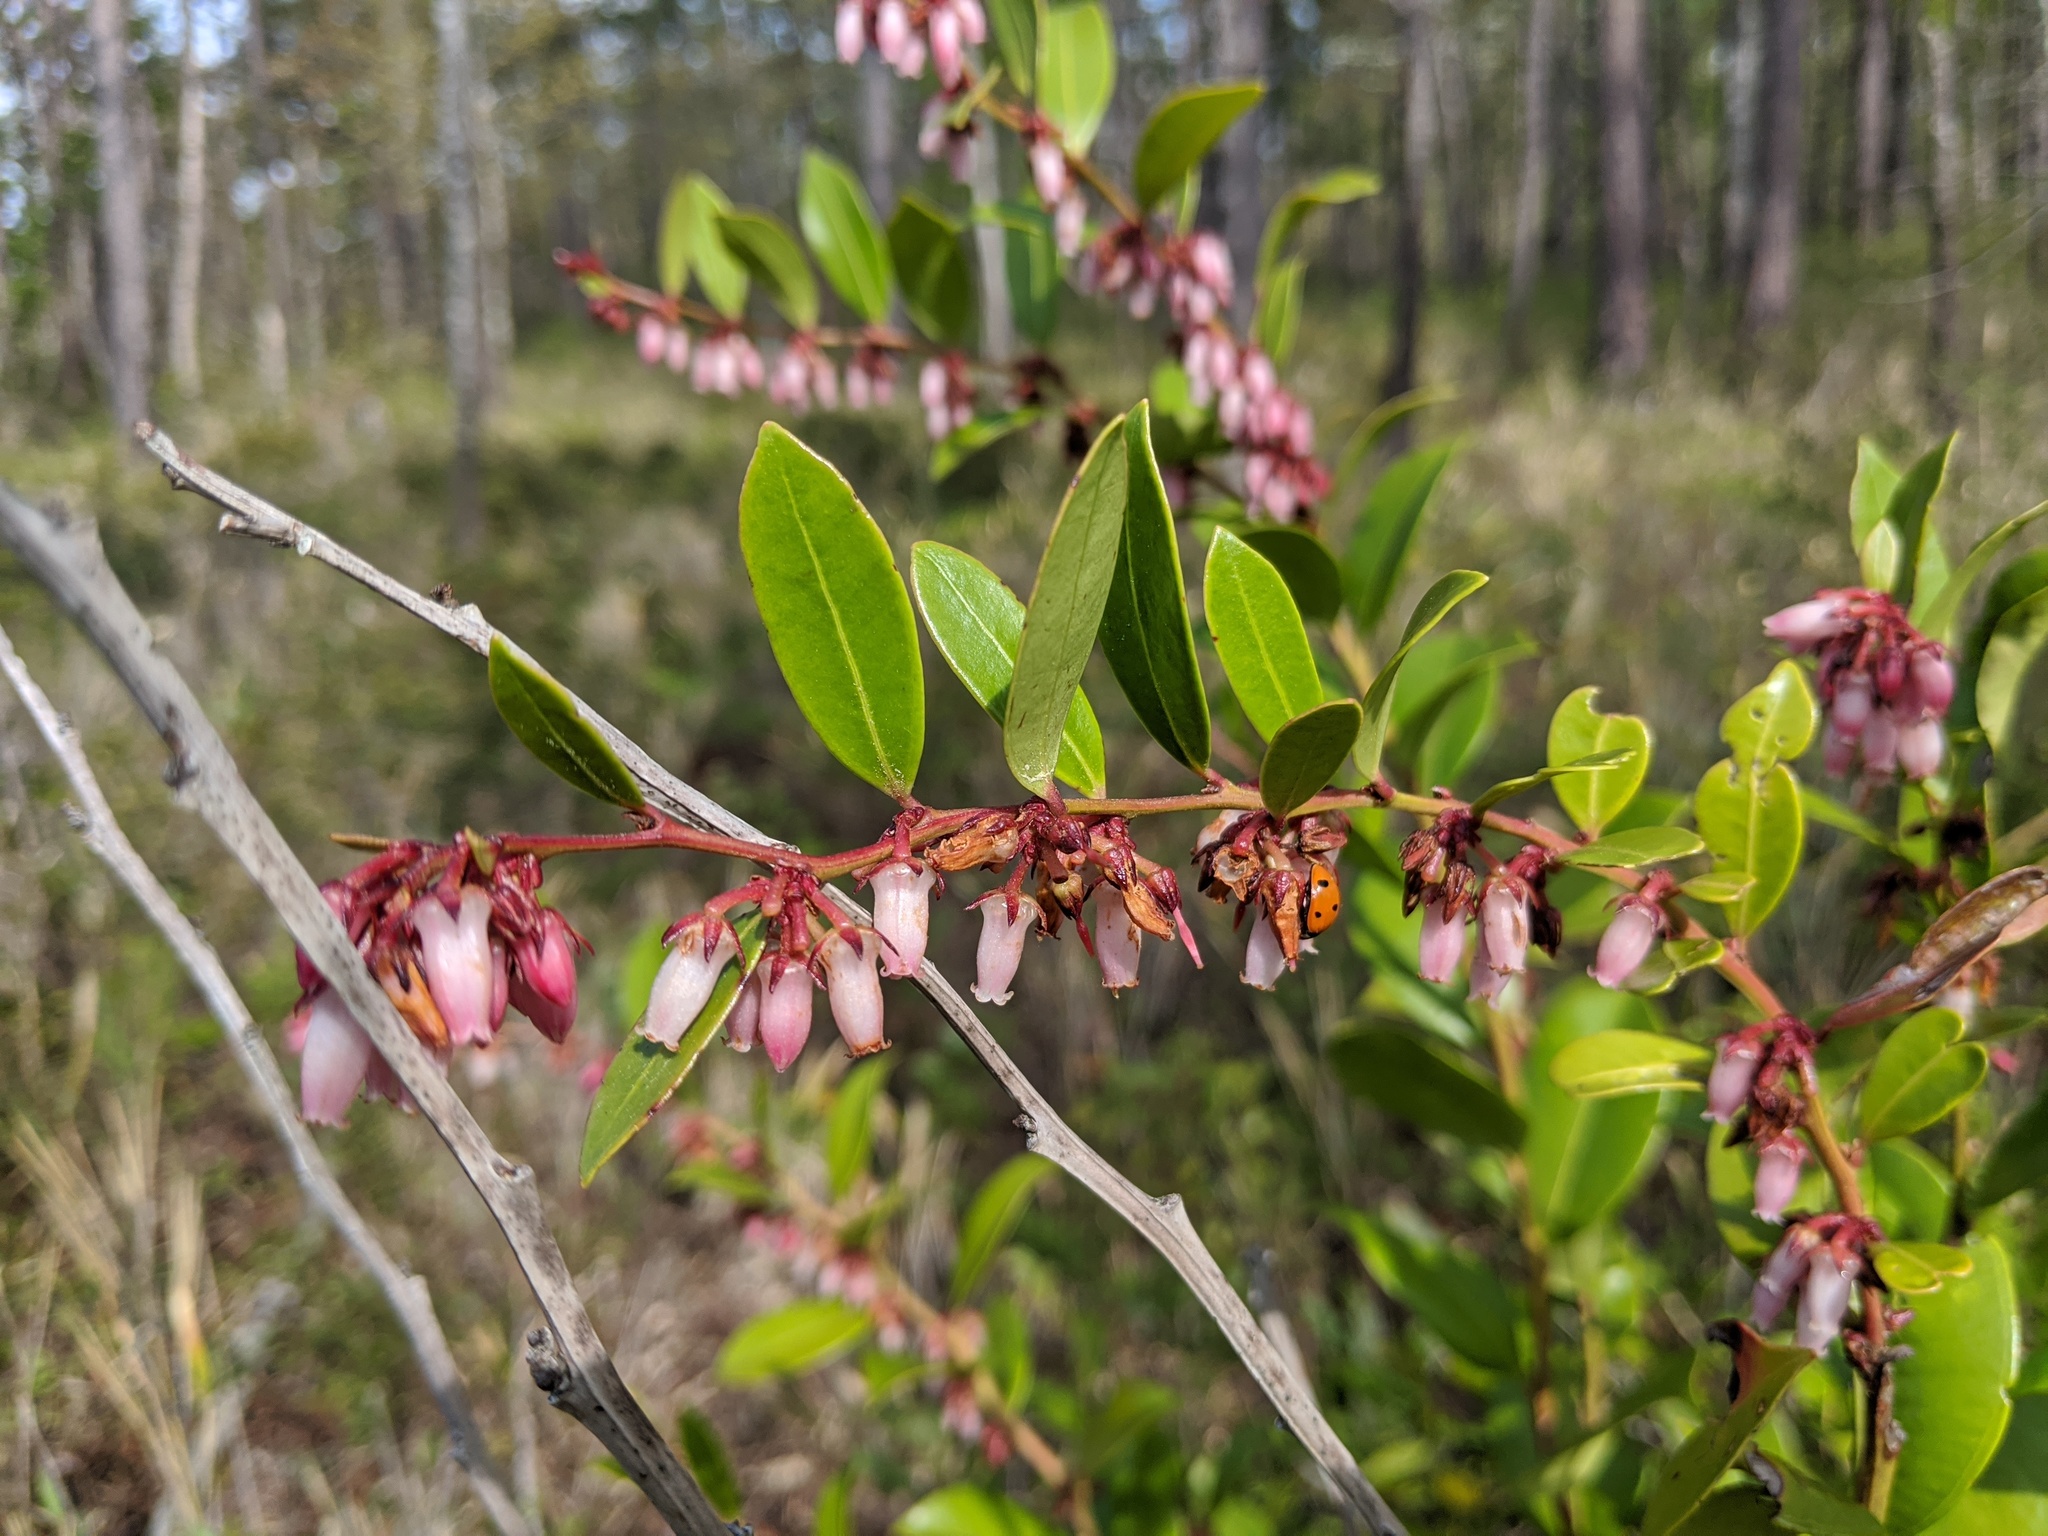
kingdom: Plantae
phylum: Tracheophyta
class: Magnoliopsida
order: Ericales
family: Ericaceae
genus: Lyonia
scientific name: Lyonia lucida
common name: Fetterbush
